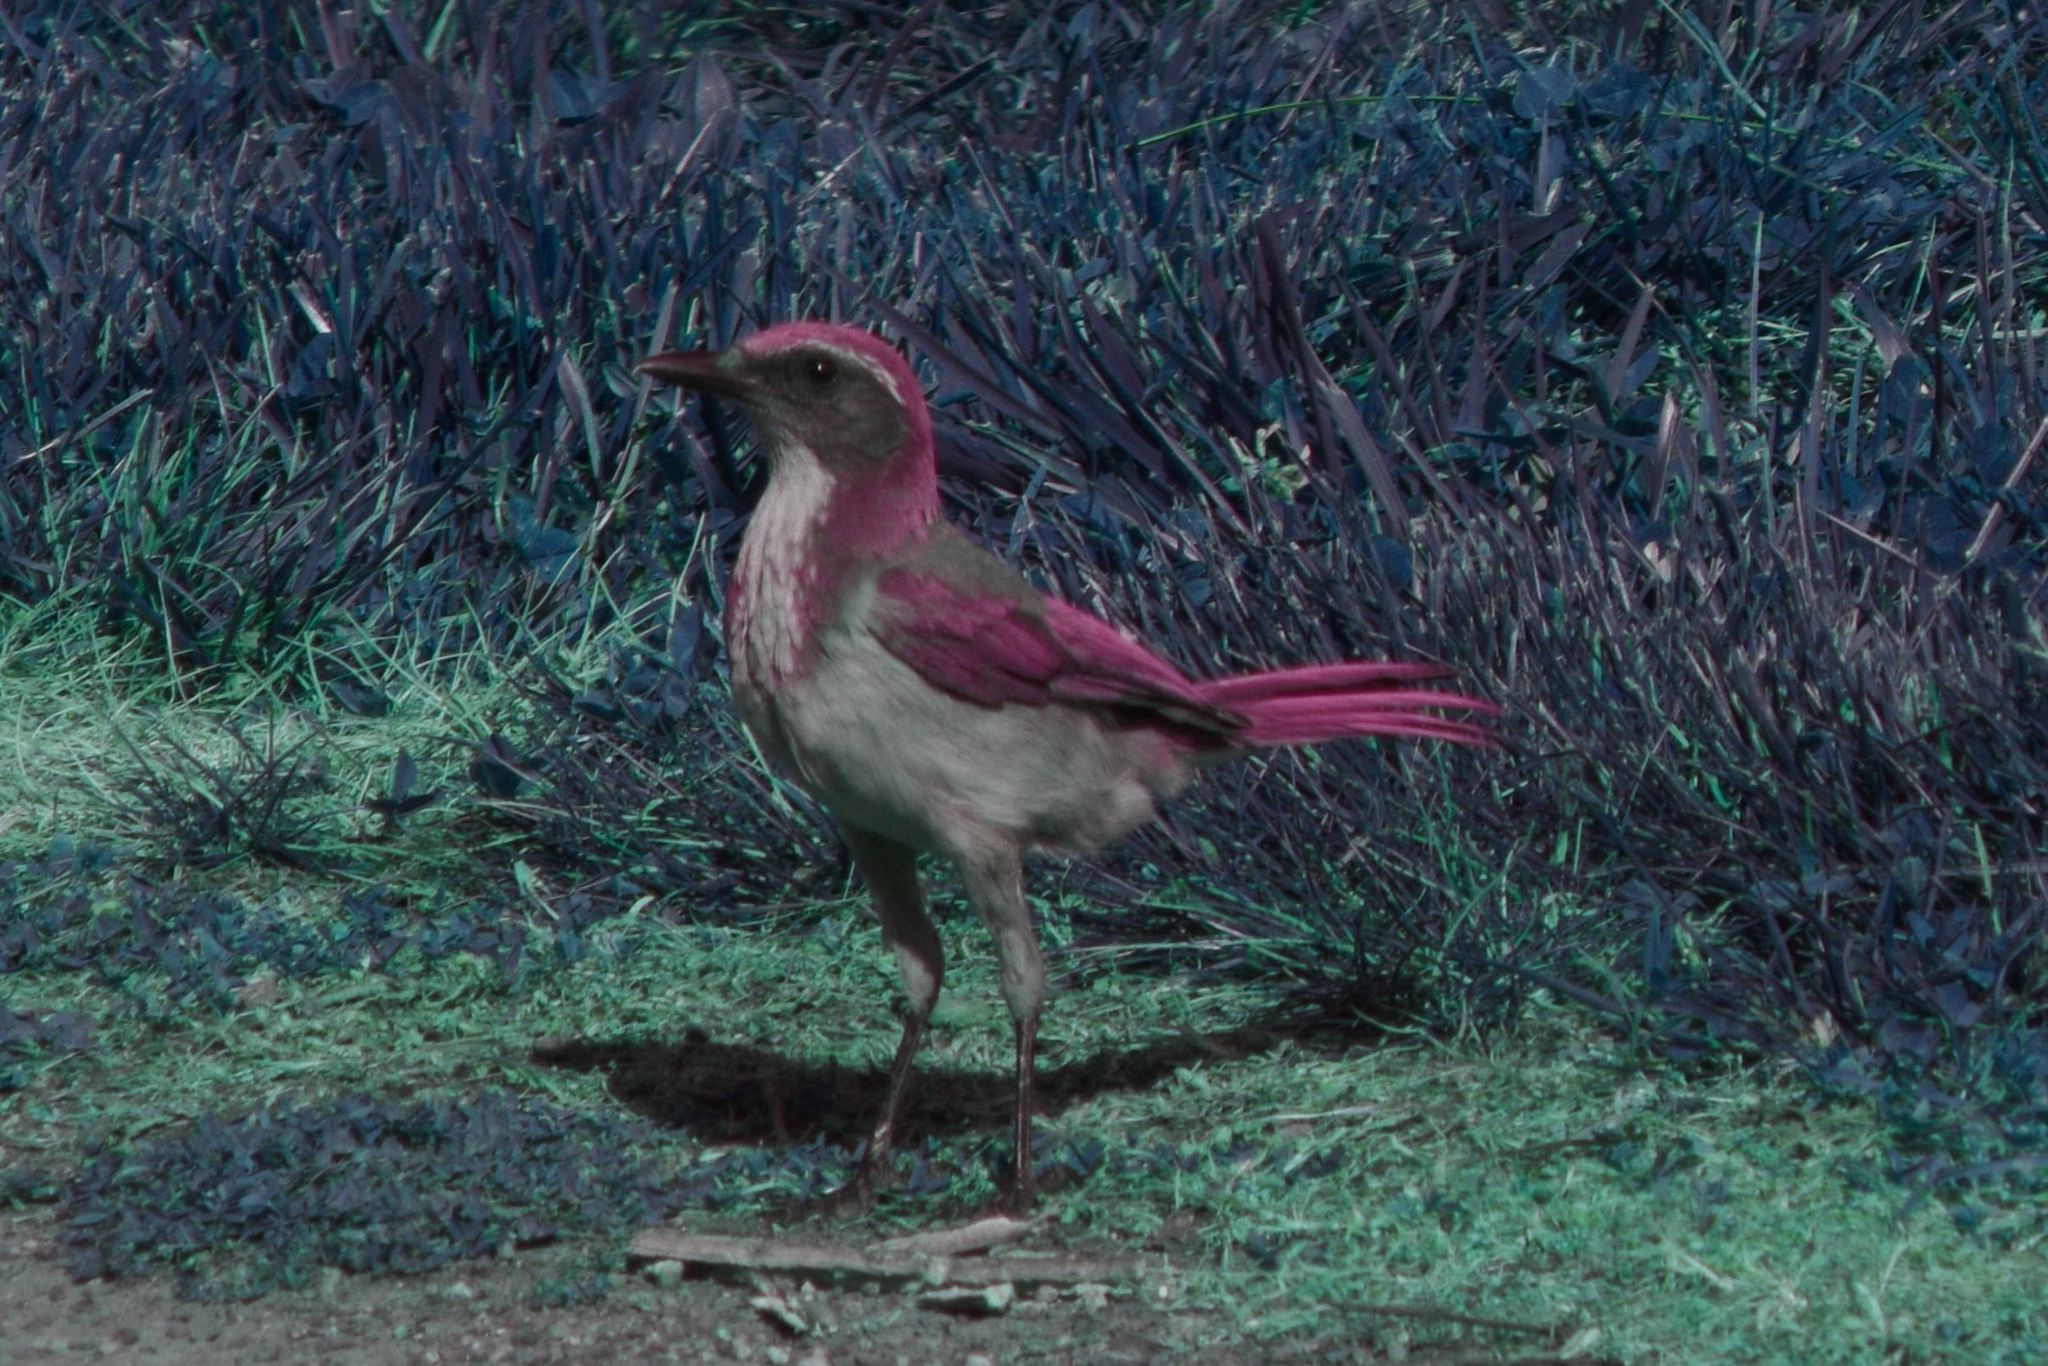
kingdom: Animalia
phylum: Chordata
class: Aves
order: Passeriformes
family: Corvidae
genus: Aphelocoma
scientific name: Aphelocoma californica
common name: California scrub-jay
